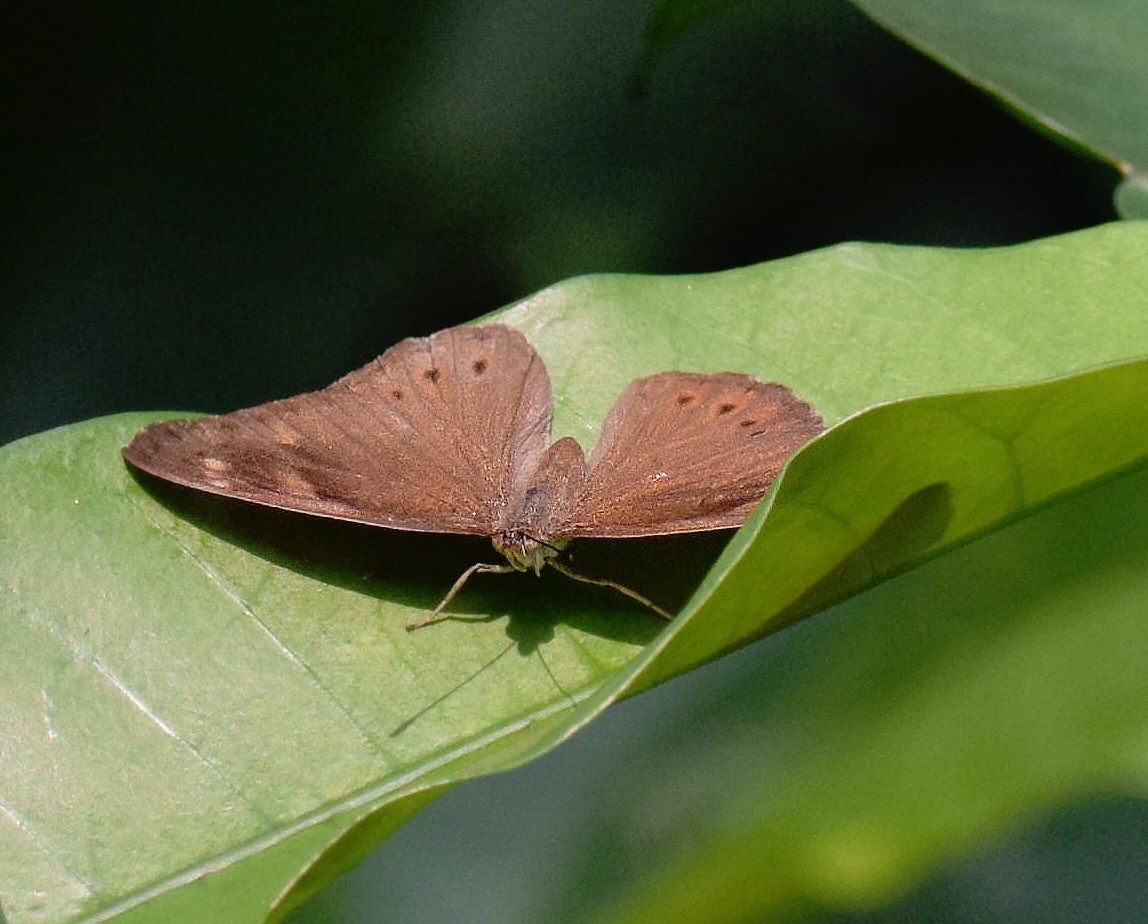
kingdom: Animalia
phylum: Arthropoda
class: Insecta
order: Lepidoptera
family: Nymphalidae
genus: Asterope
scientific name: Asterope boisduvali
